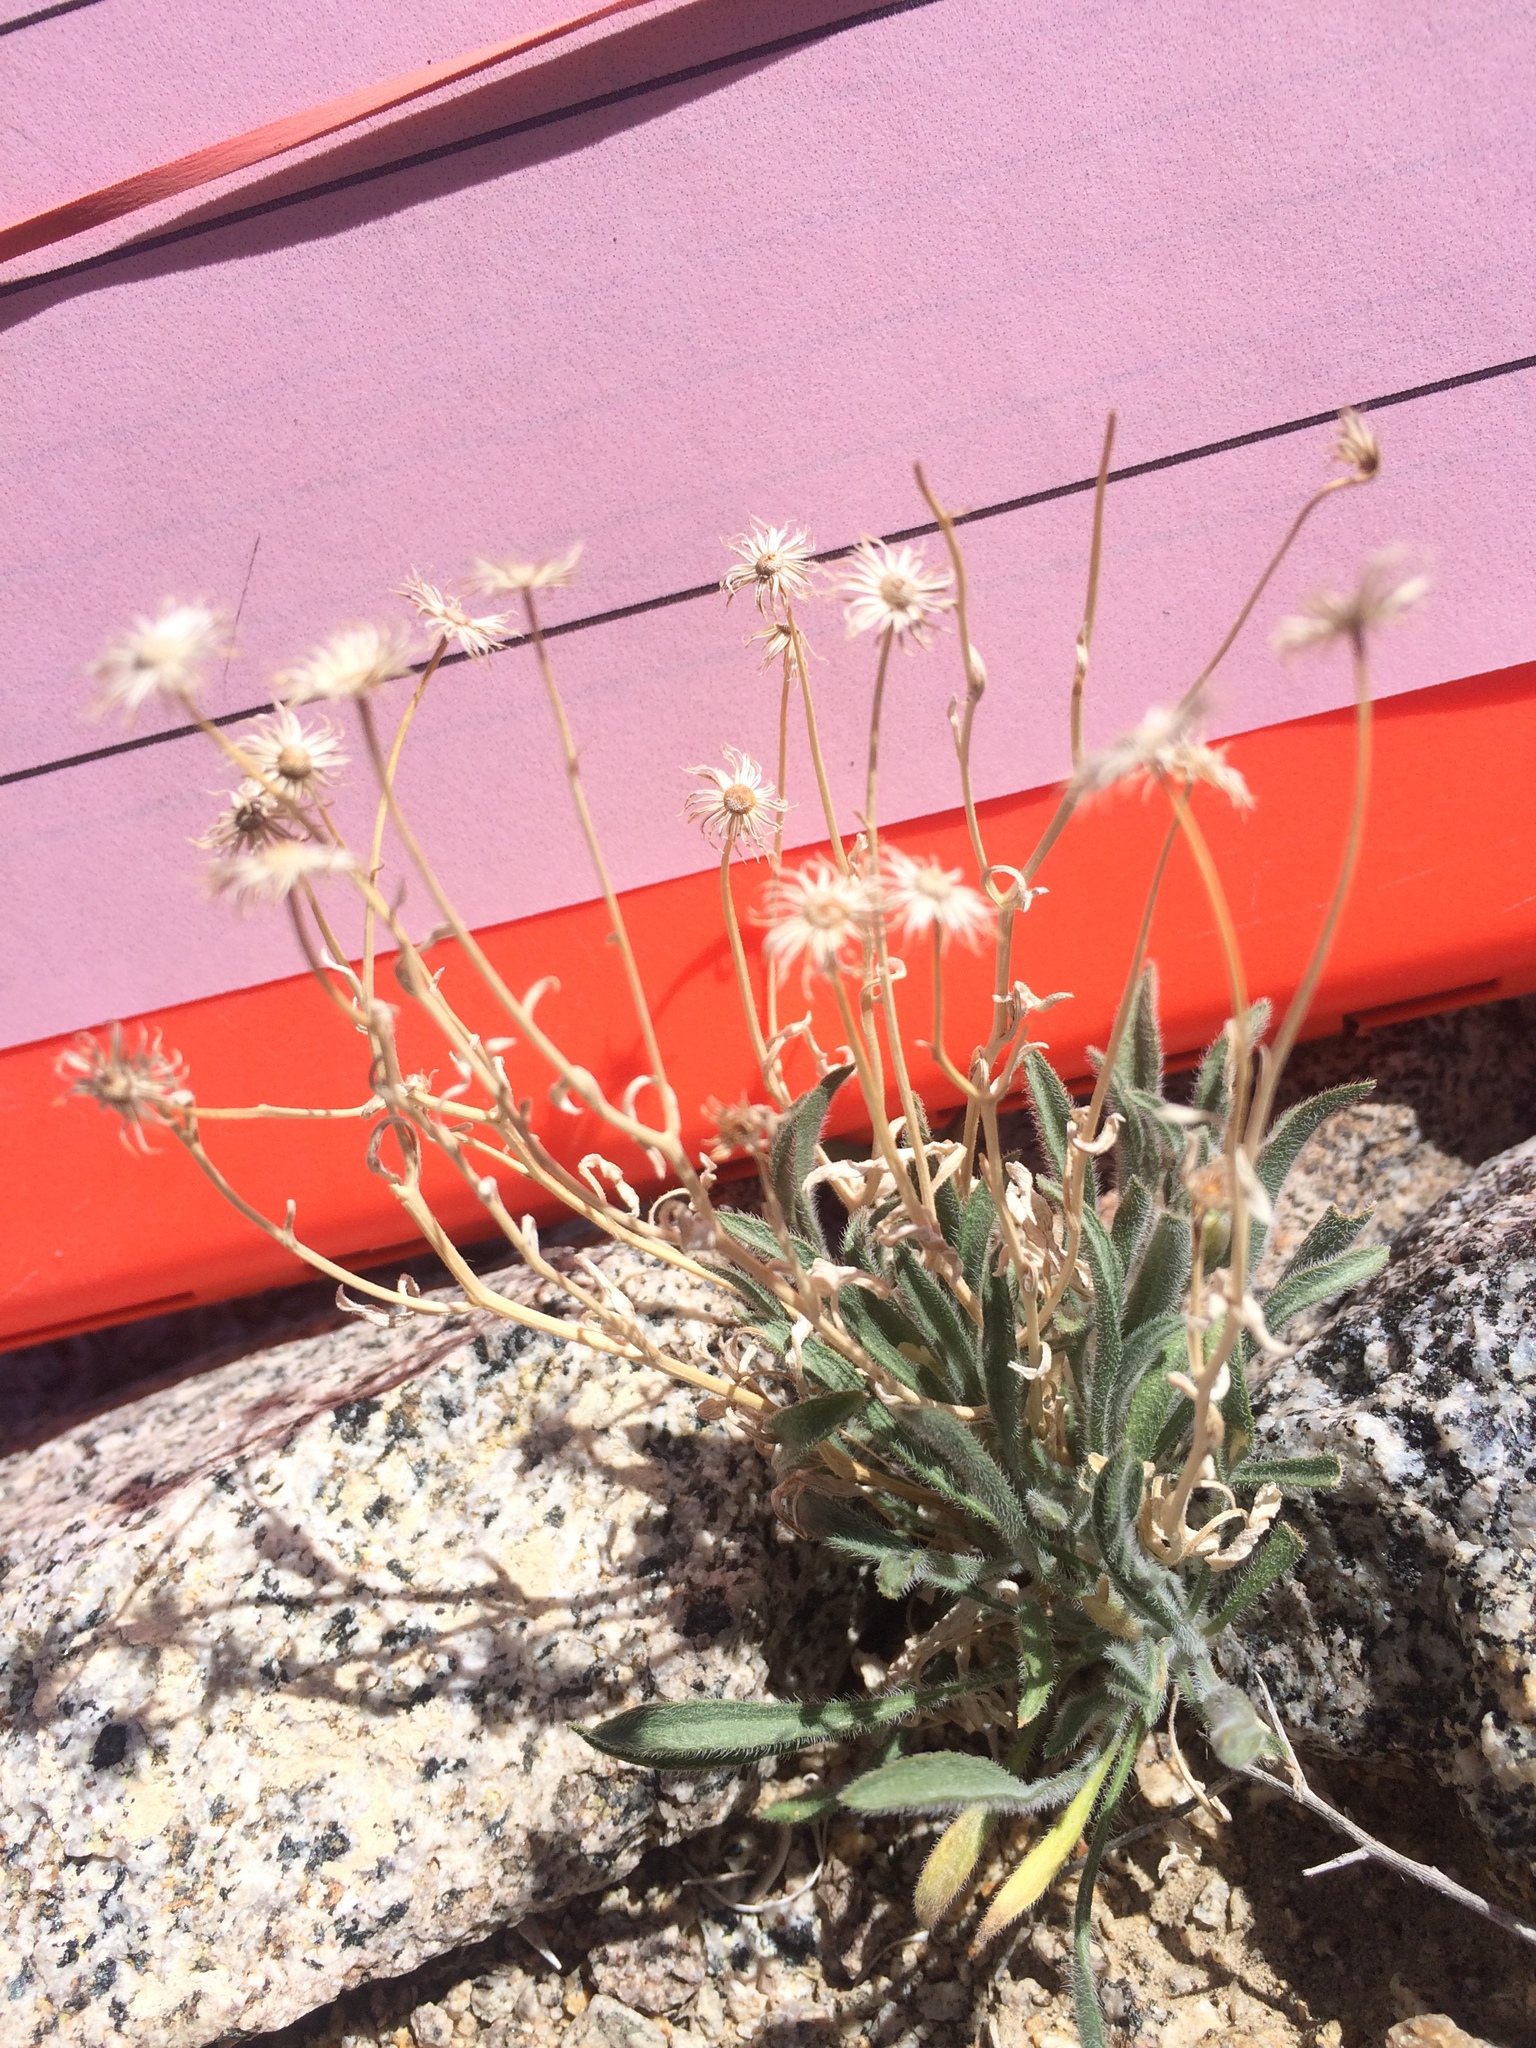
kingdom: Plantae
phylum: Tracheophyta
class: Magnoliopsida
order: Asterales
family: Asteraceae
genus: Erigeron
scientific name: Erigeron clokeyi
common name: Clokey's fleabane
